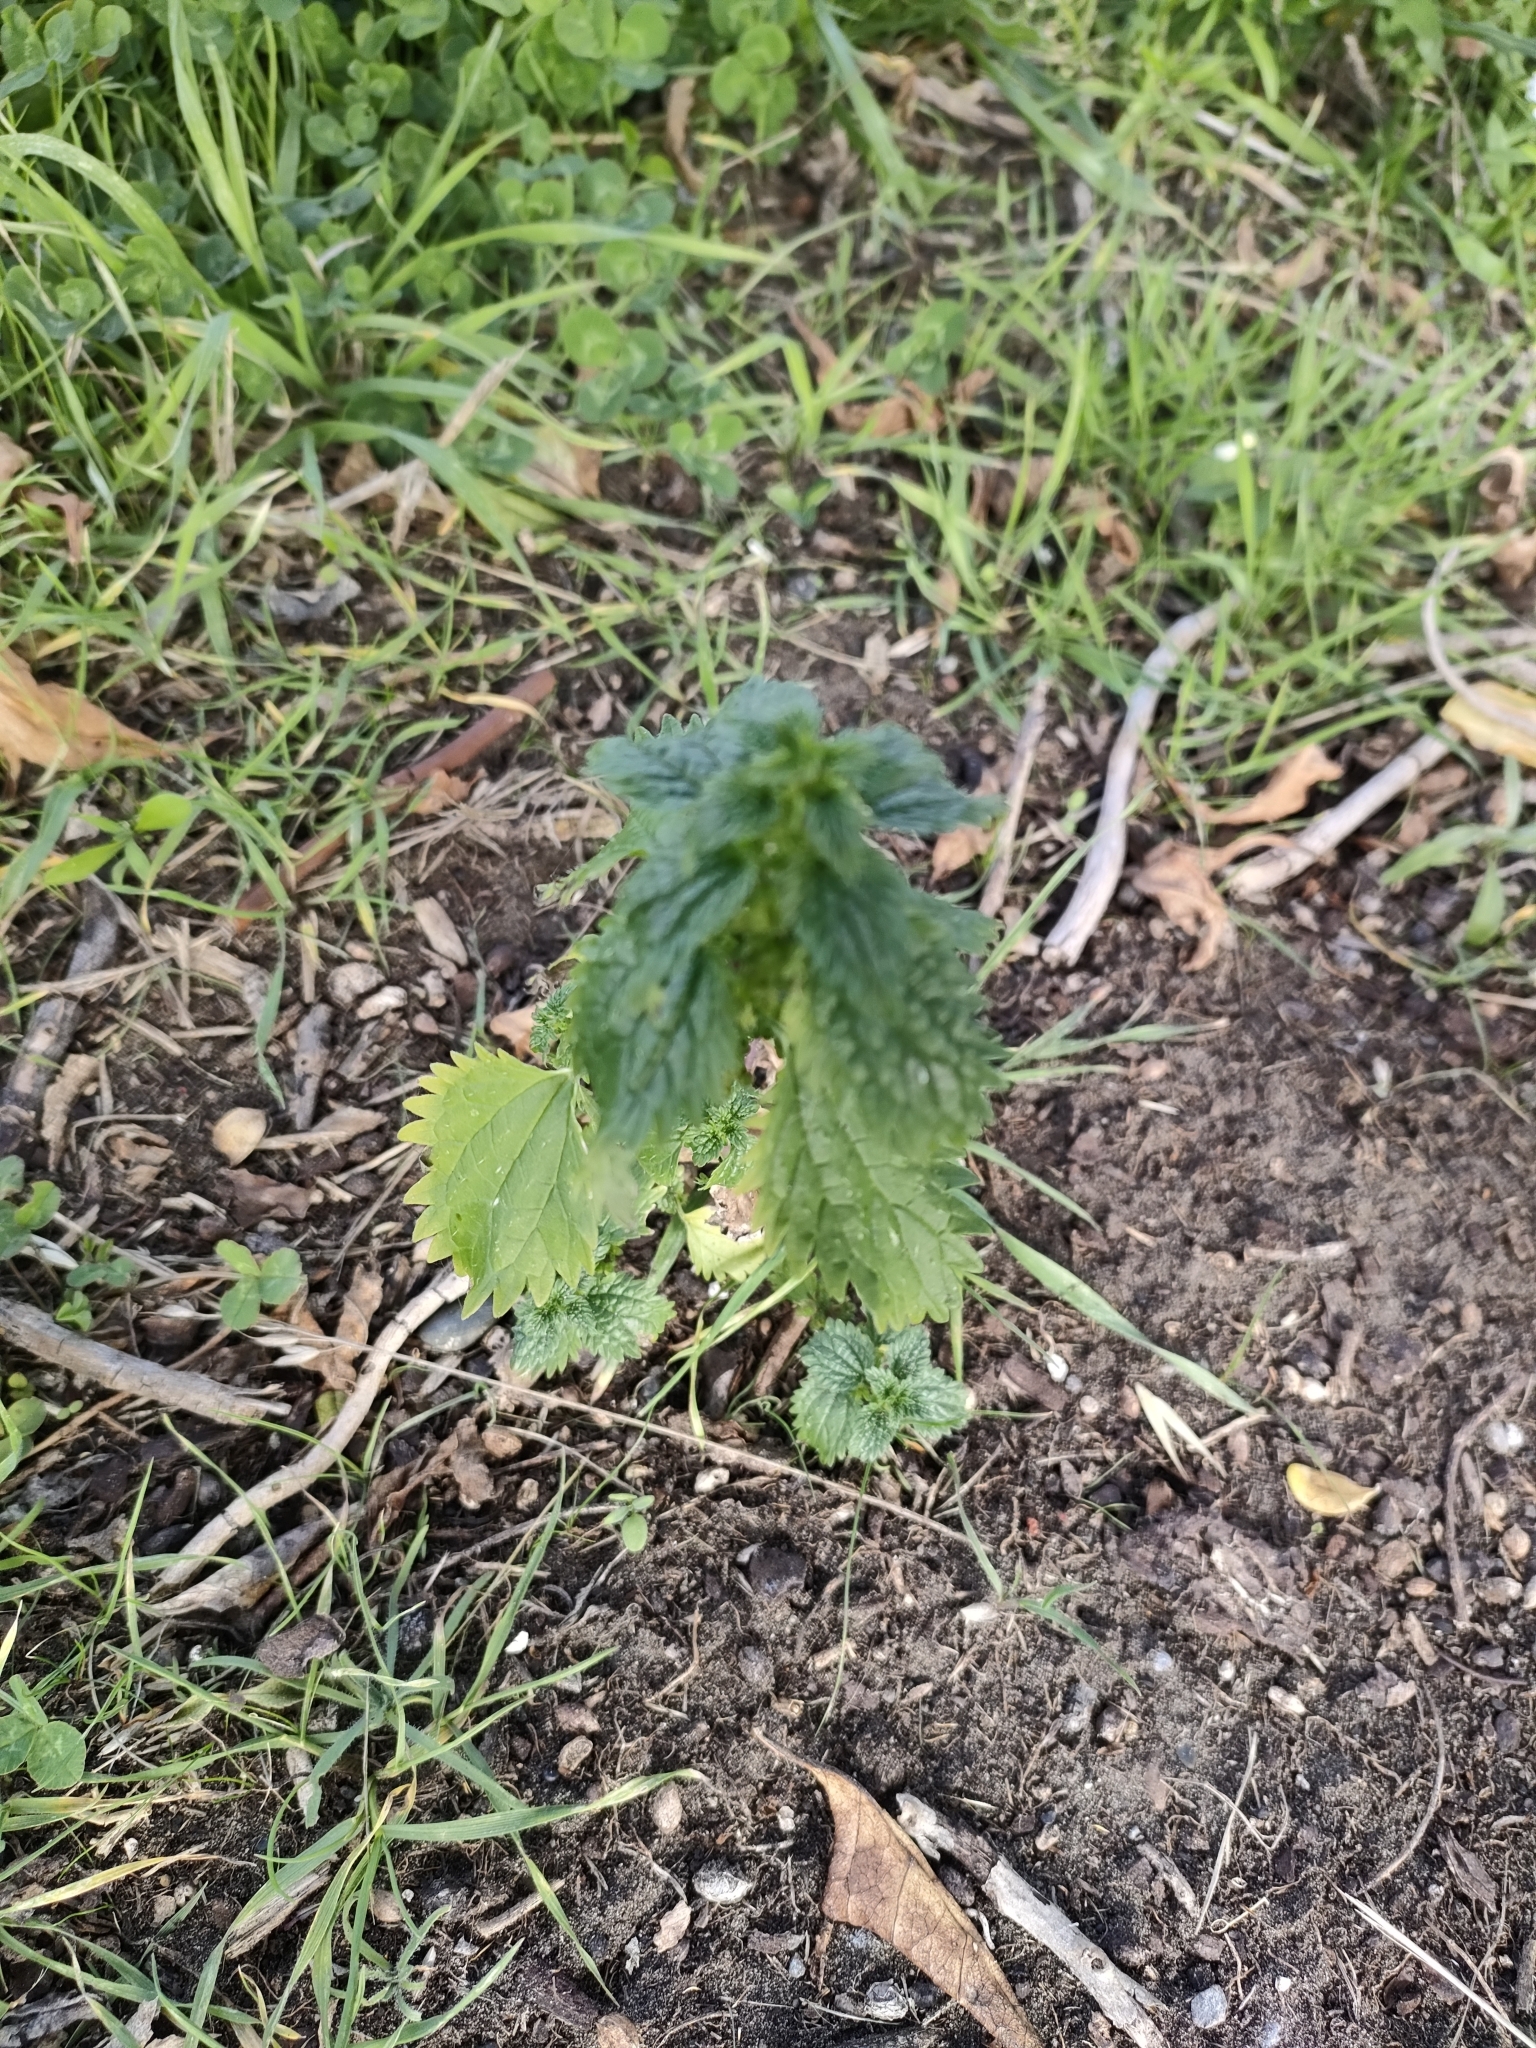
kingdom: Plantae
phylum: Tracheophyta
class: Magnoliopsida
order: Rosales
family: Urticaceae
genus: Urtica
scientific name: Urtica urens
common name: Dwarf nettle
